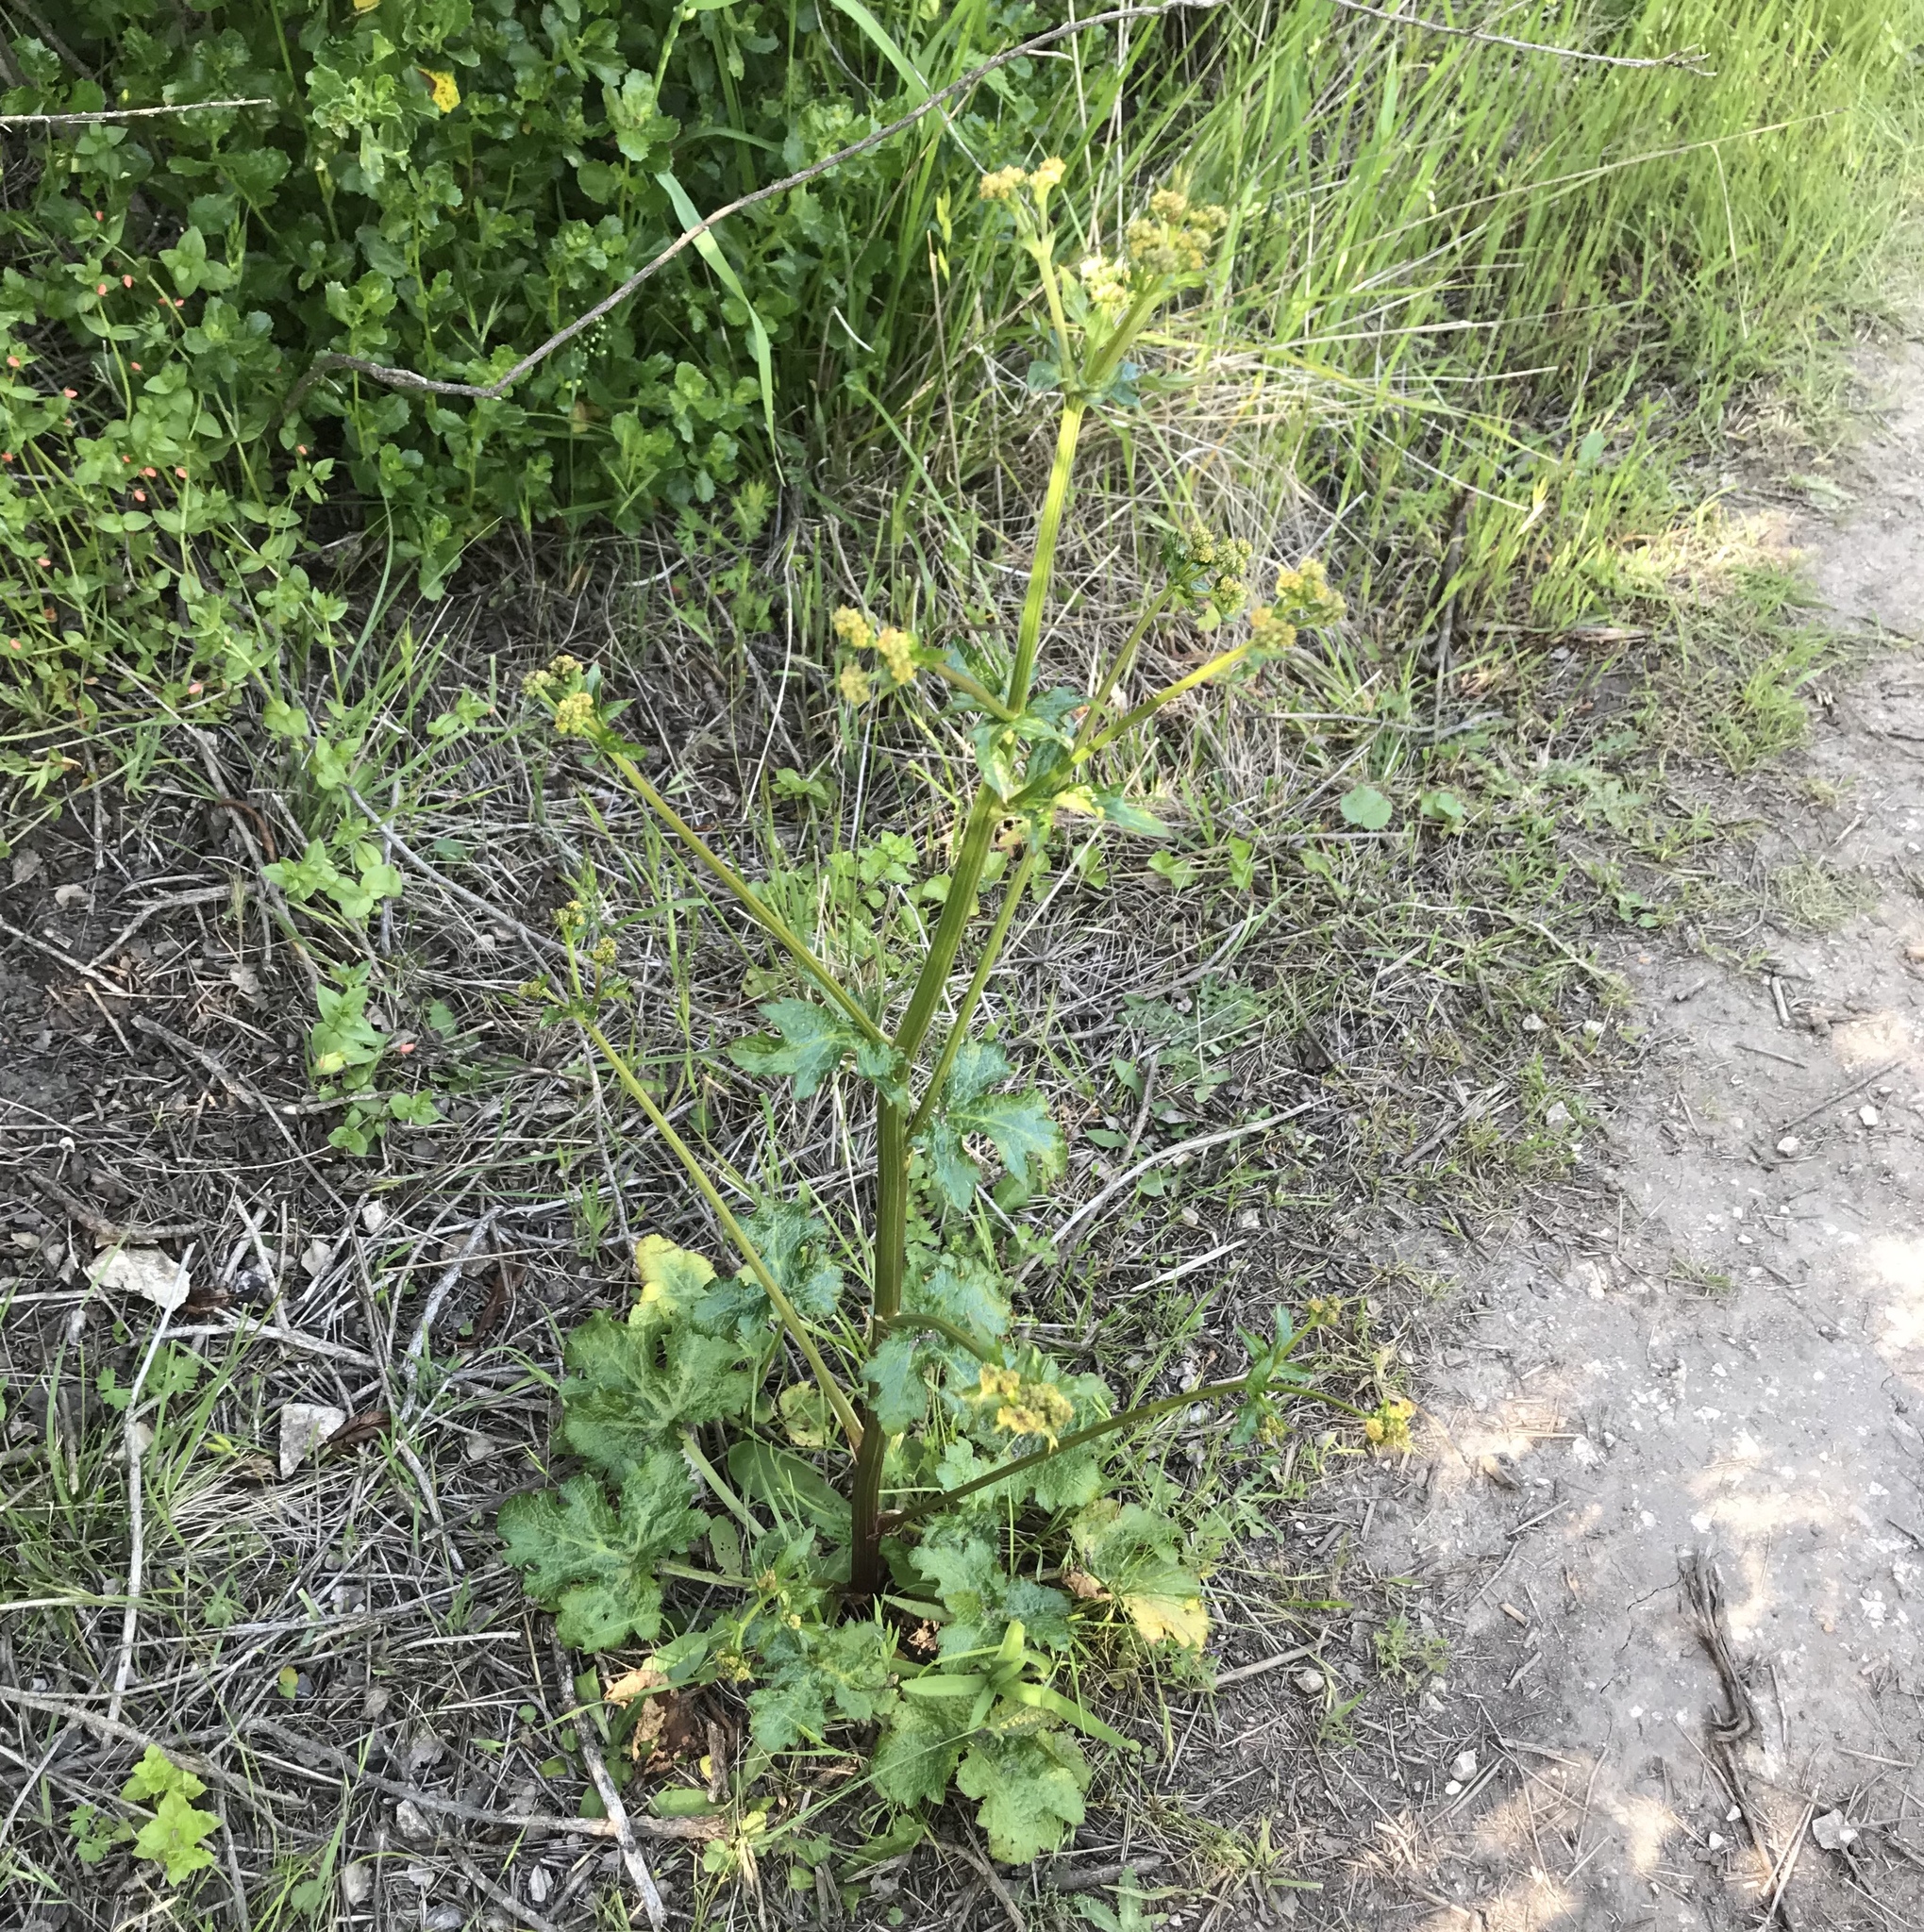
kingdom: Plantae
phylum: Tracheophyta
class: Magnoliopsida
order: Apiales
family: Apiaceae
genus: Sanicula
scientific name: Sanicula crassicaulis
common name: Western snakeroot
